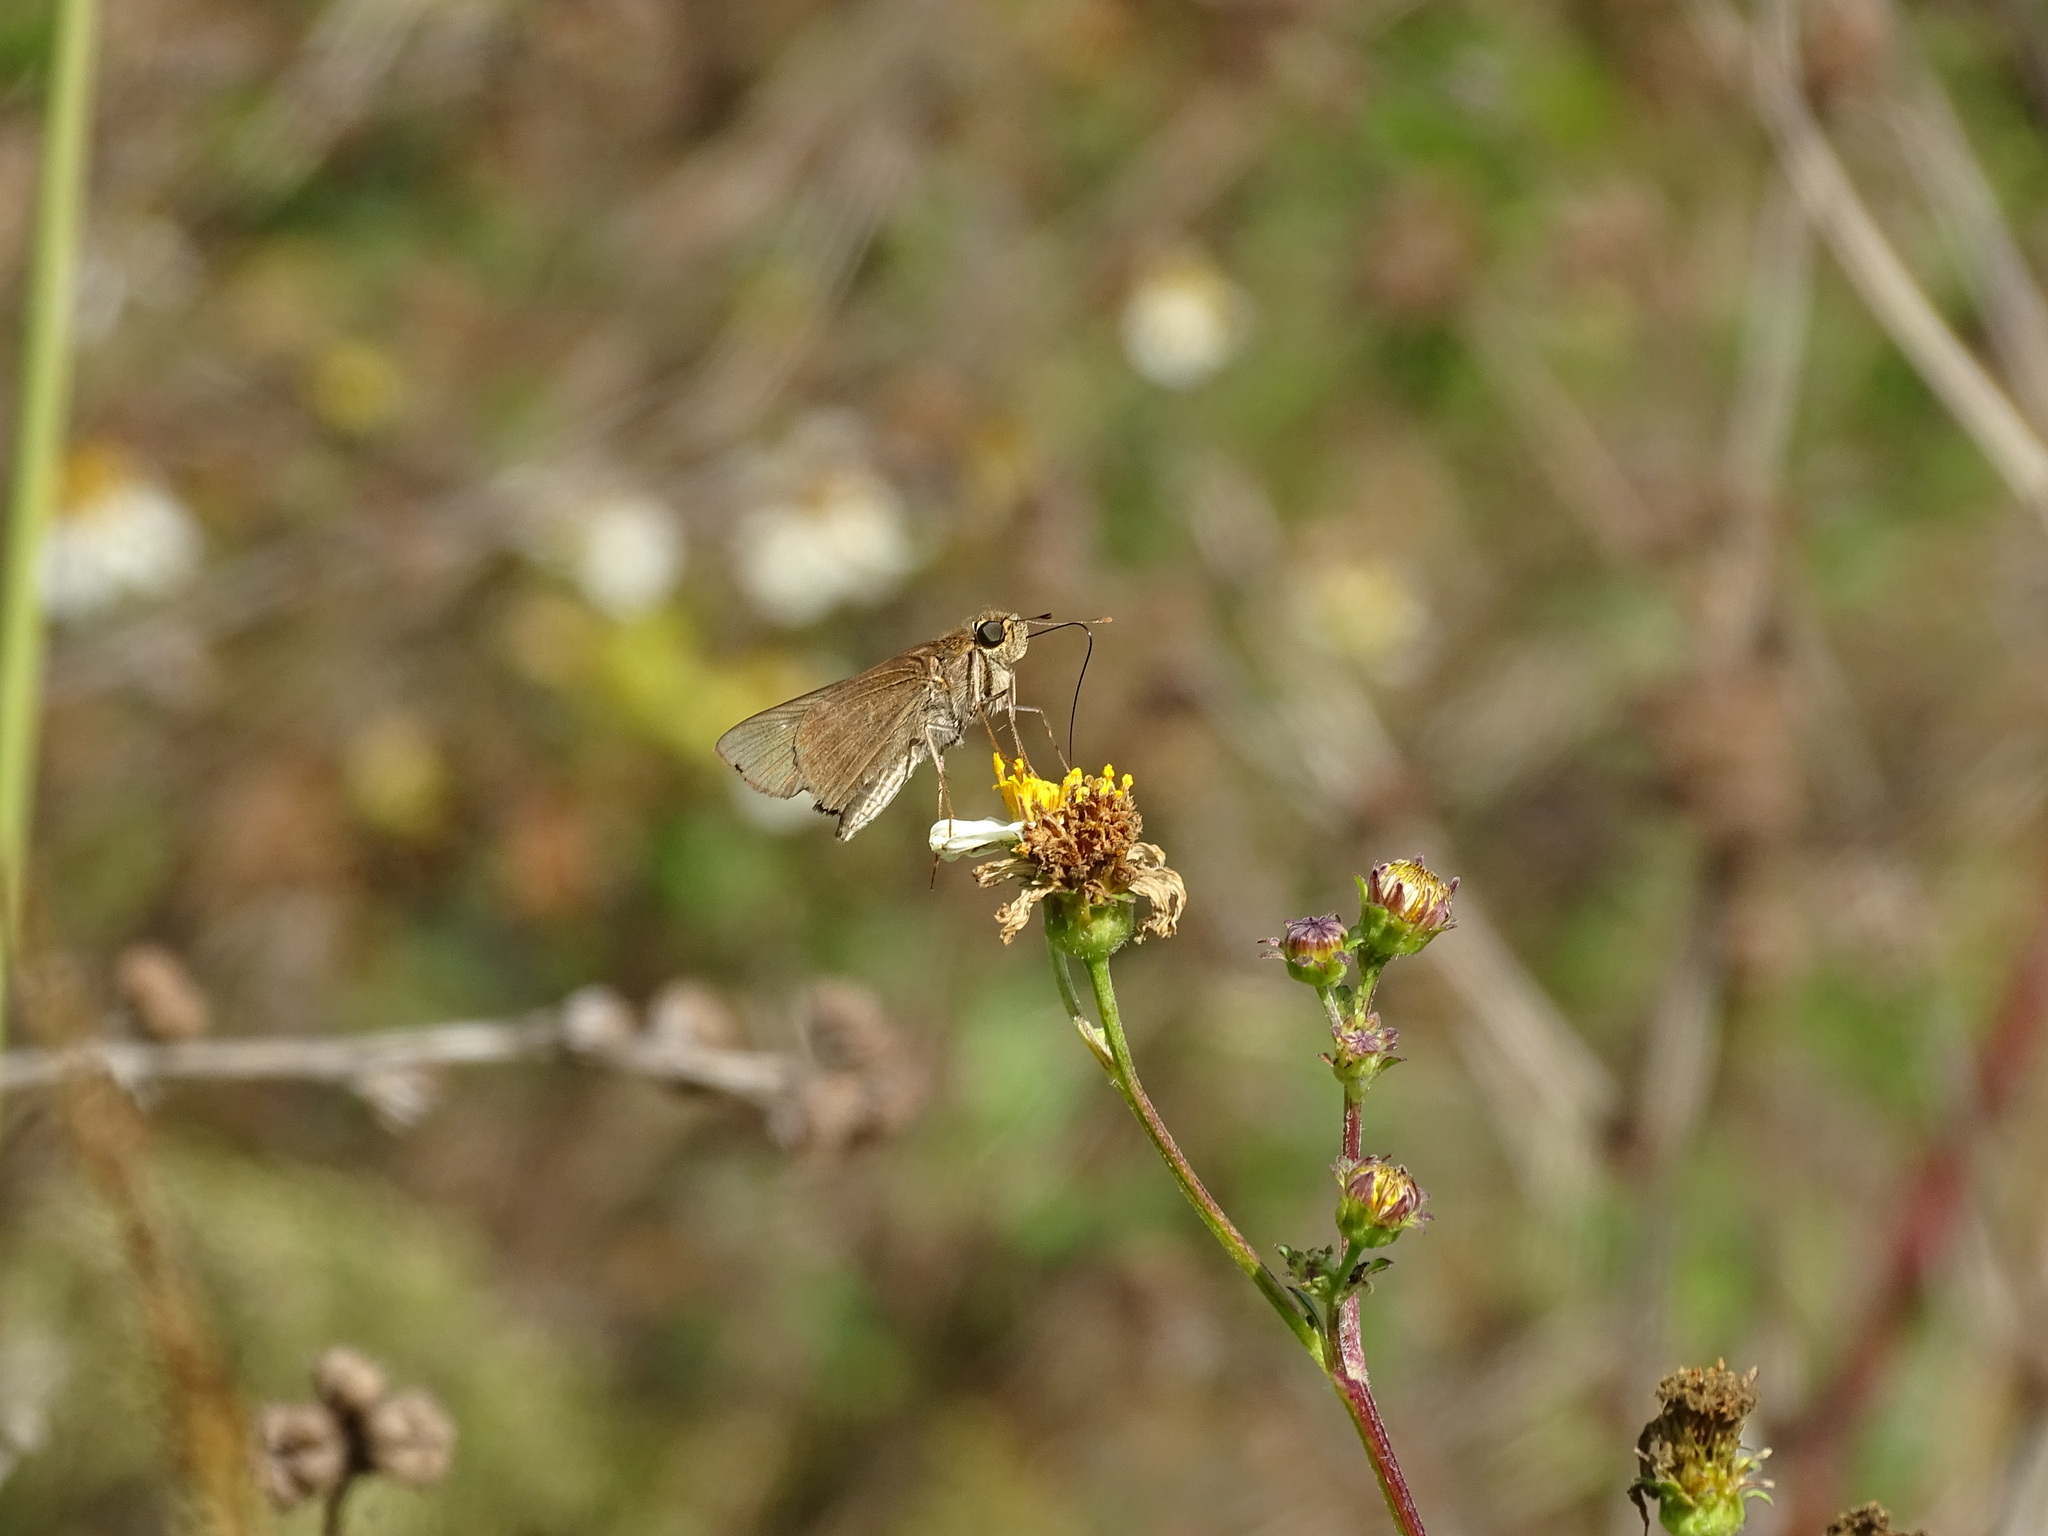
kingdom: Animalia
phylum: Arthropoda
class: Insecta
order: Lepidoptera
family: Hesperiidae
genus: Panoquina
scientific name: Panoquina ocola
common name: Ocola skipper
